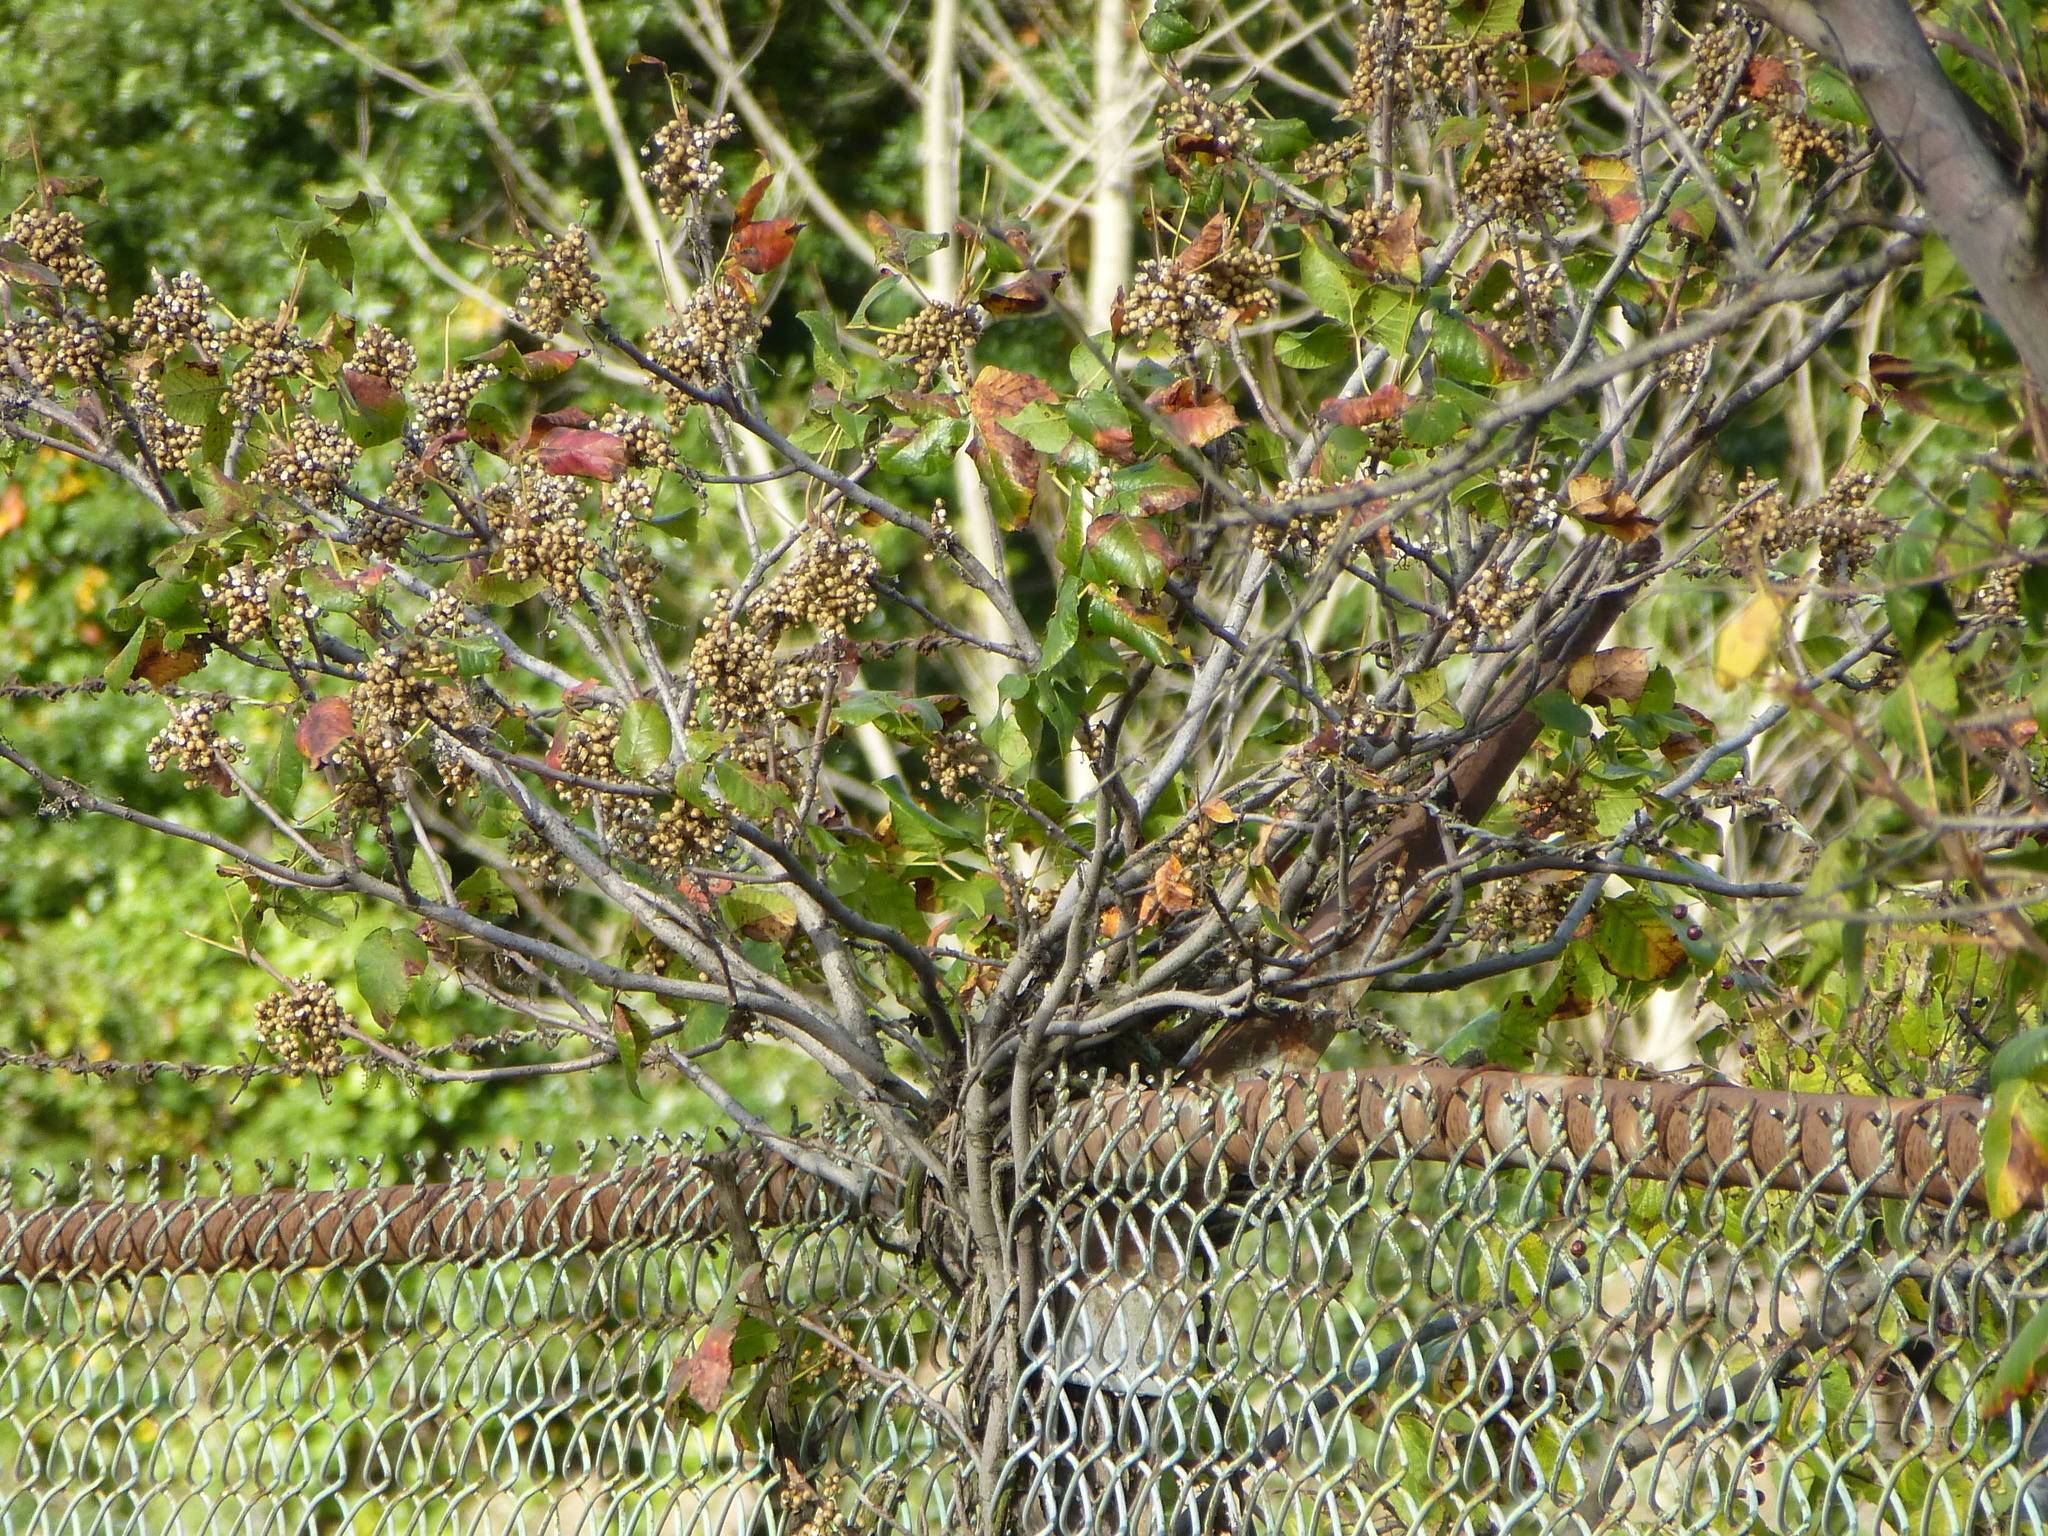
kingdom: Plantae
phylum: Tracheophyta
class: Magnoliopsida
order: Sapindales
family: Anacardiaceae
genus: Toxicodendron
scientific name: Toxicodendron radicans
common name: Poison ivy
